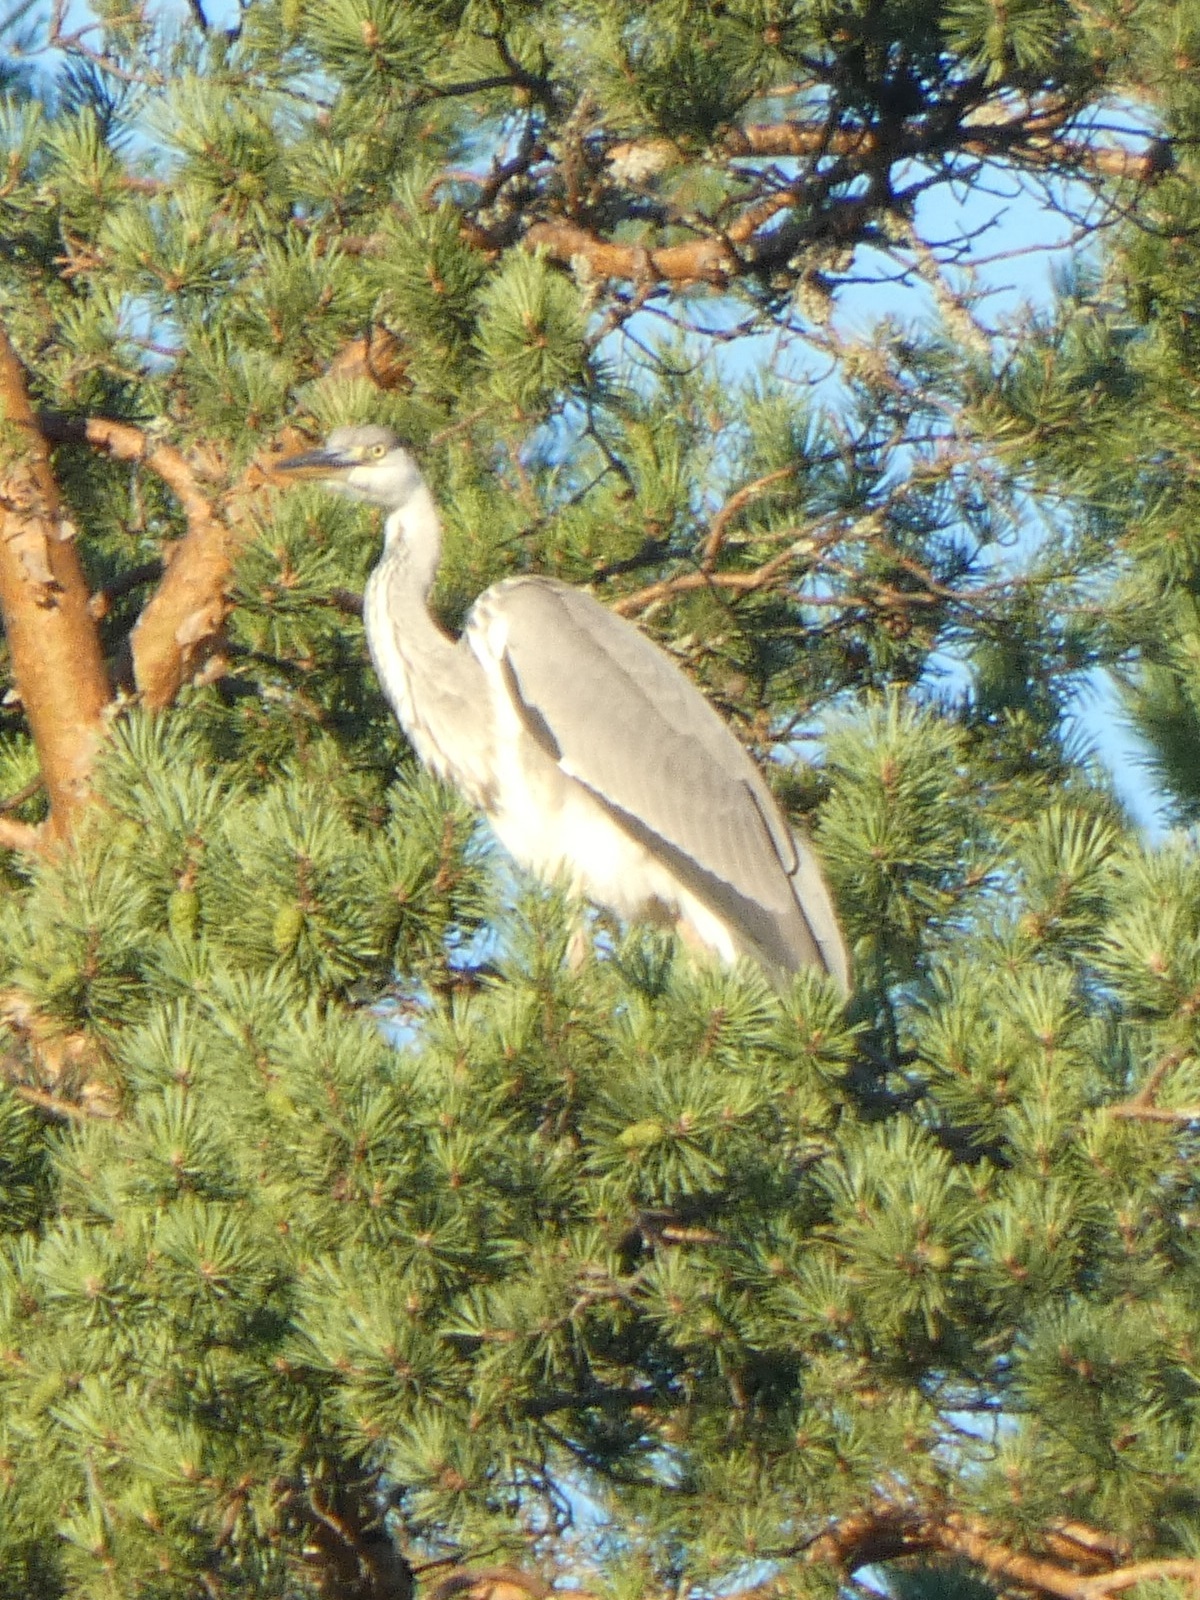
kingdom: Animalia
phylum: Chordata
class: Aves
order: Pelecaniformes
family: Ardeidae
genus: Ardea
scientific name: Ardea cinerea
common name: Grey heron
